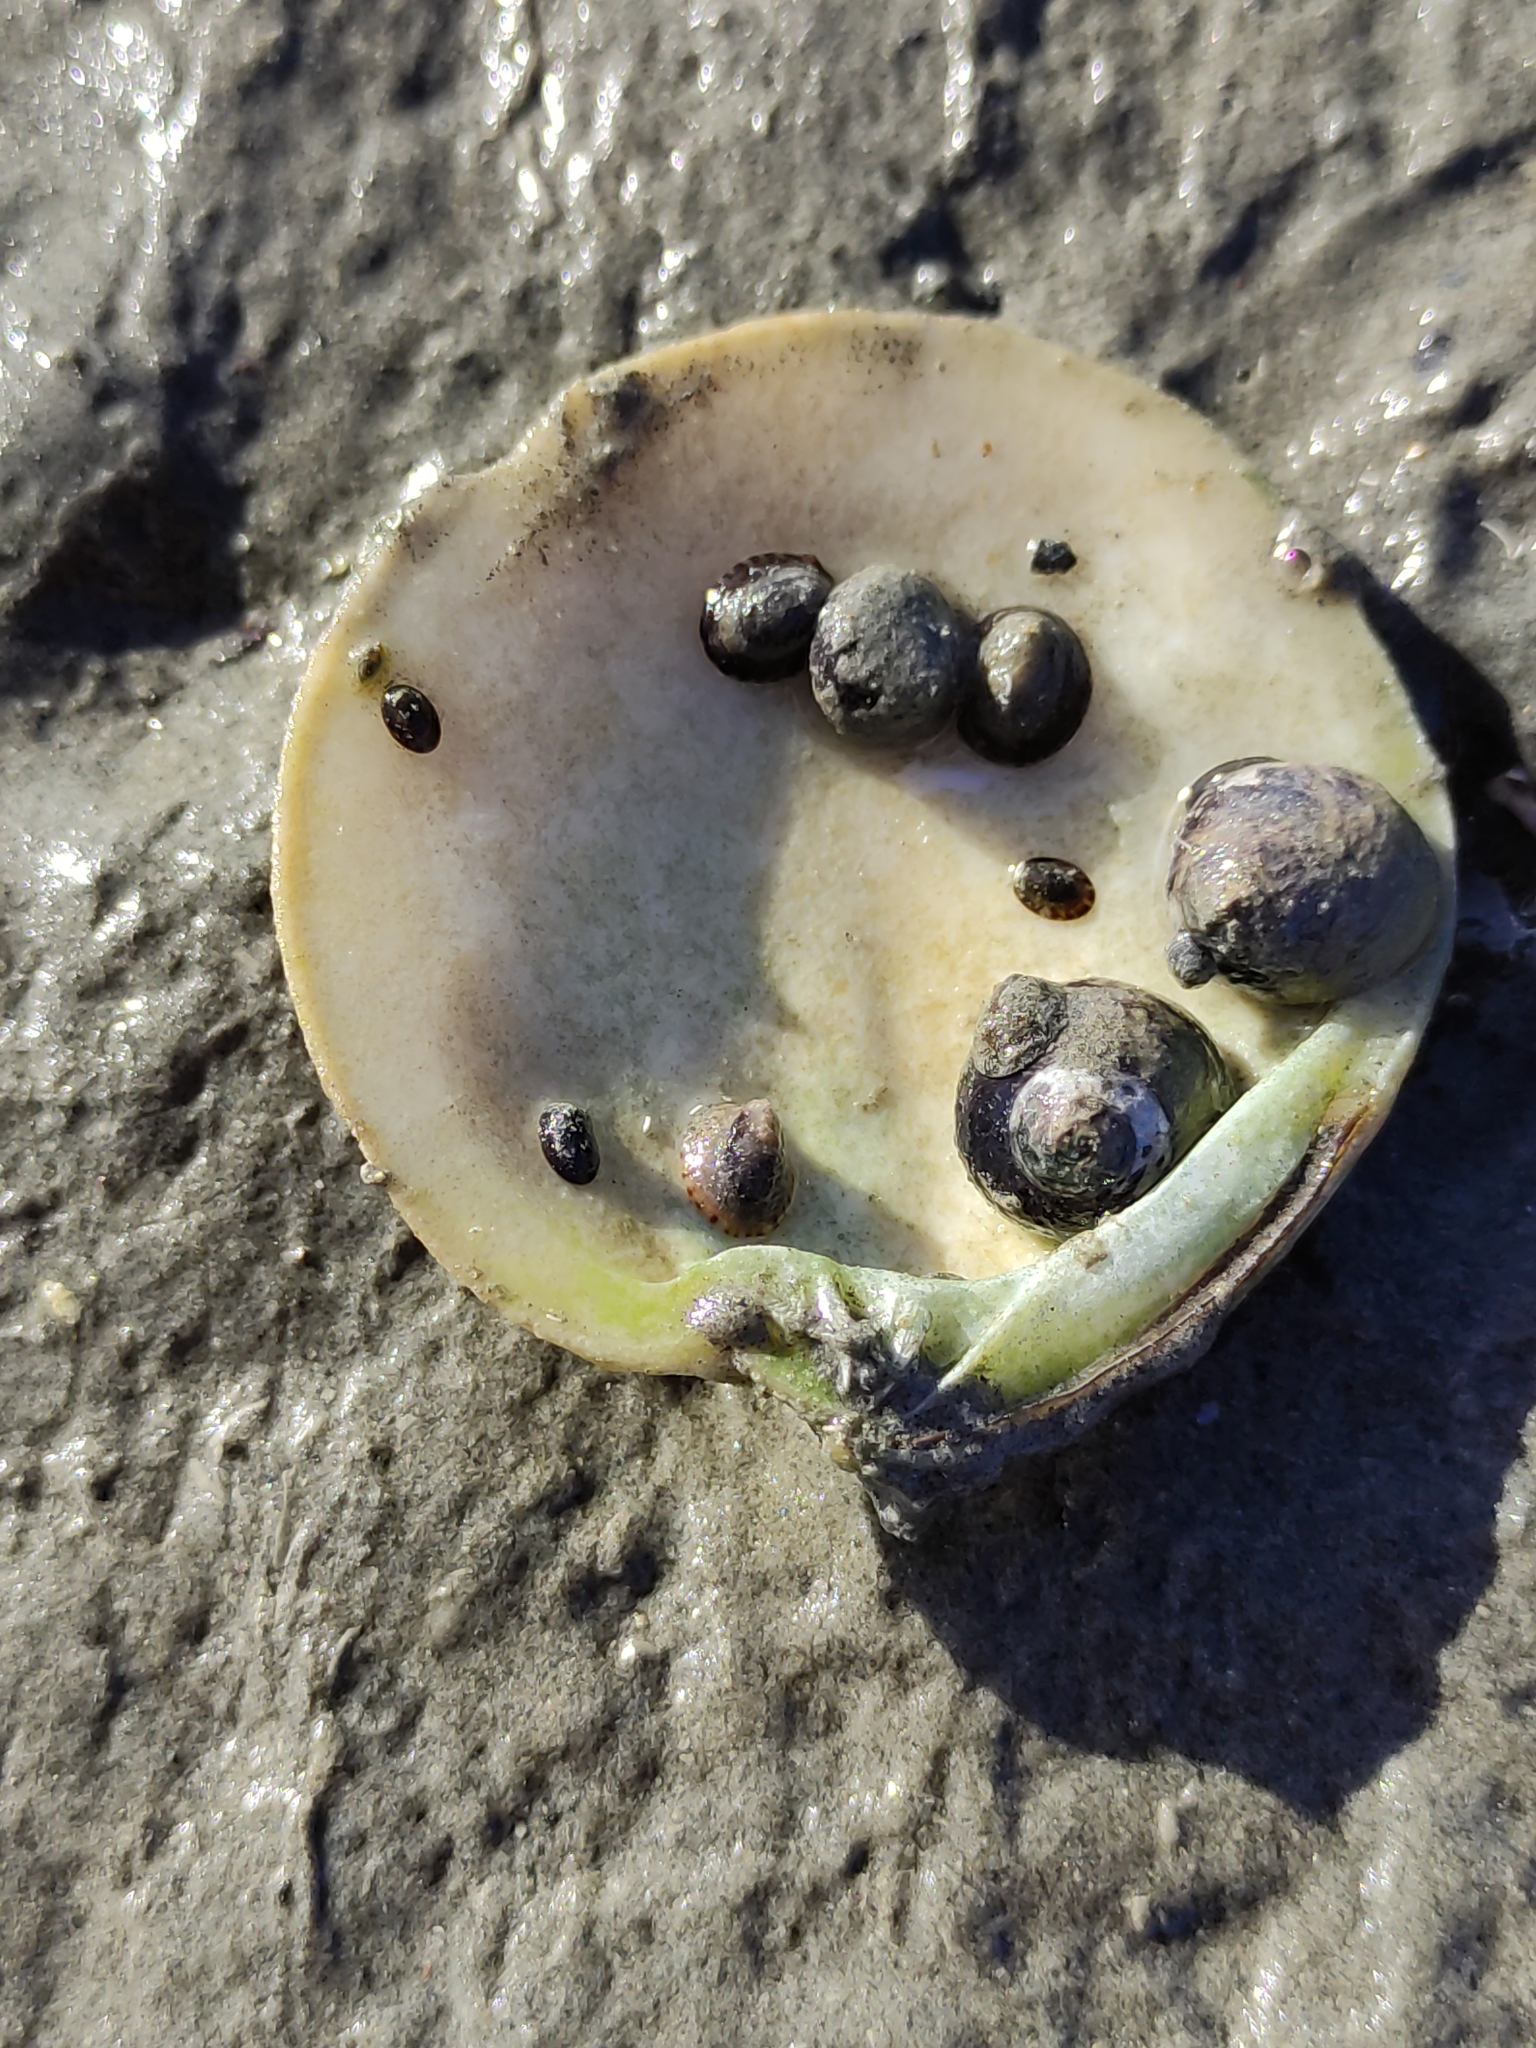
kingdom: Animalia
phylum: Mollusca
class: Bivalvia
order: Venerida
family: Veneridae
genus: Dosinia
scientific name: Dosinia anus
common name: Old-woman dosinia
